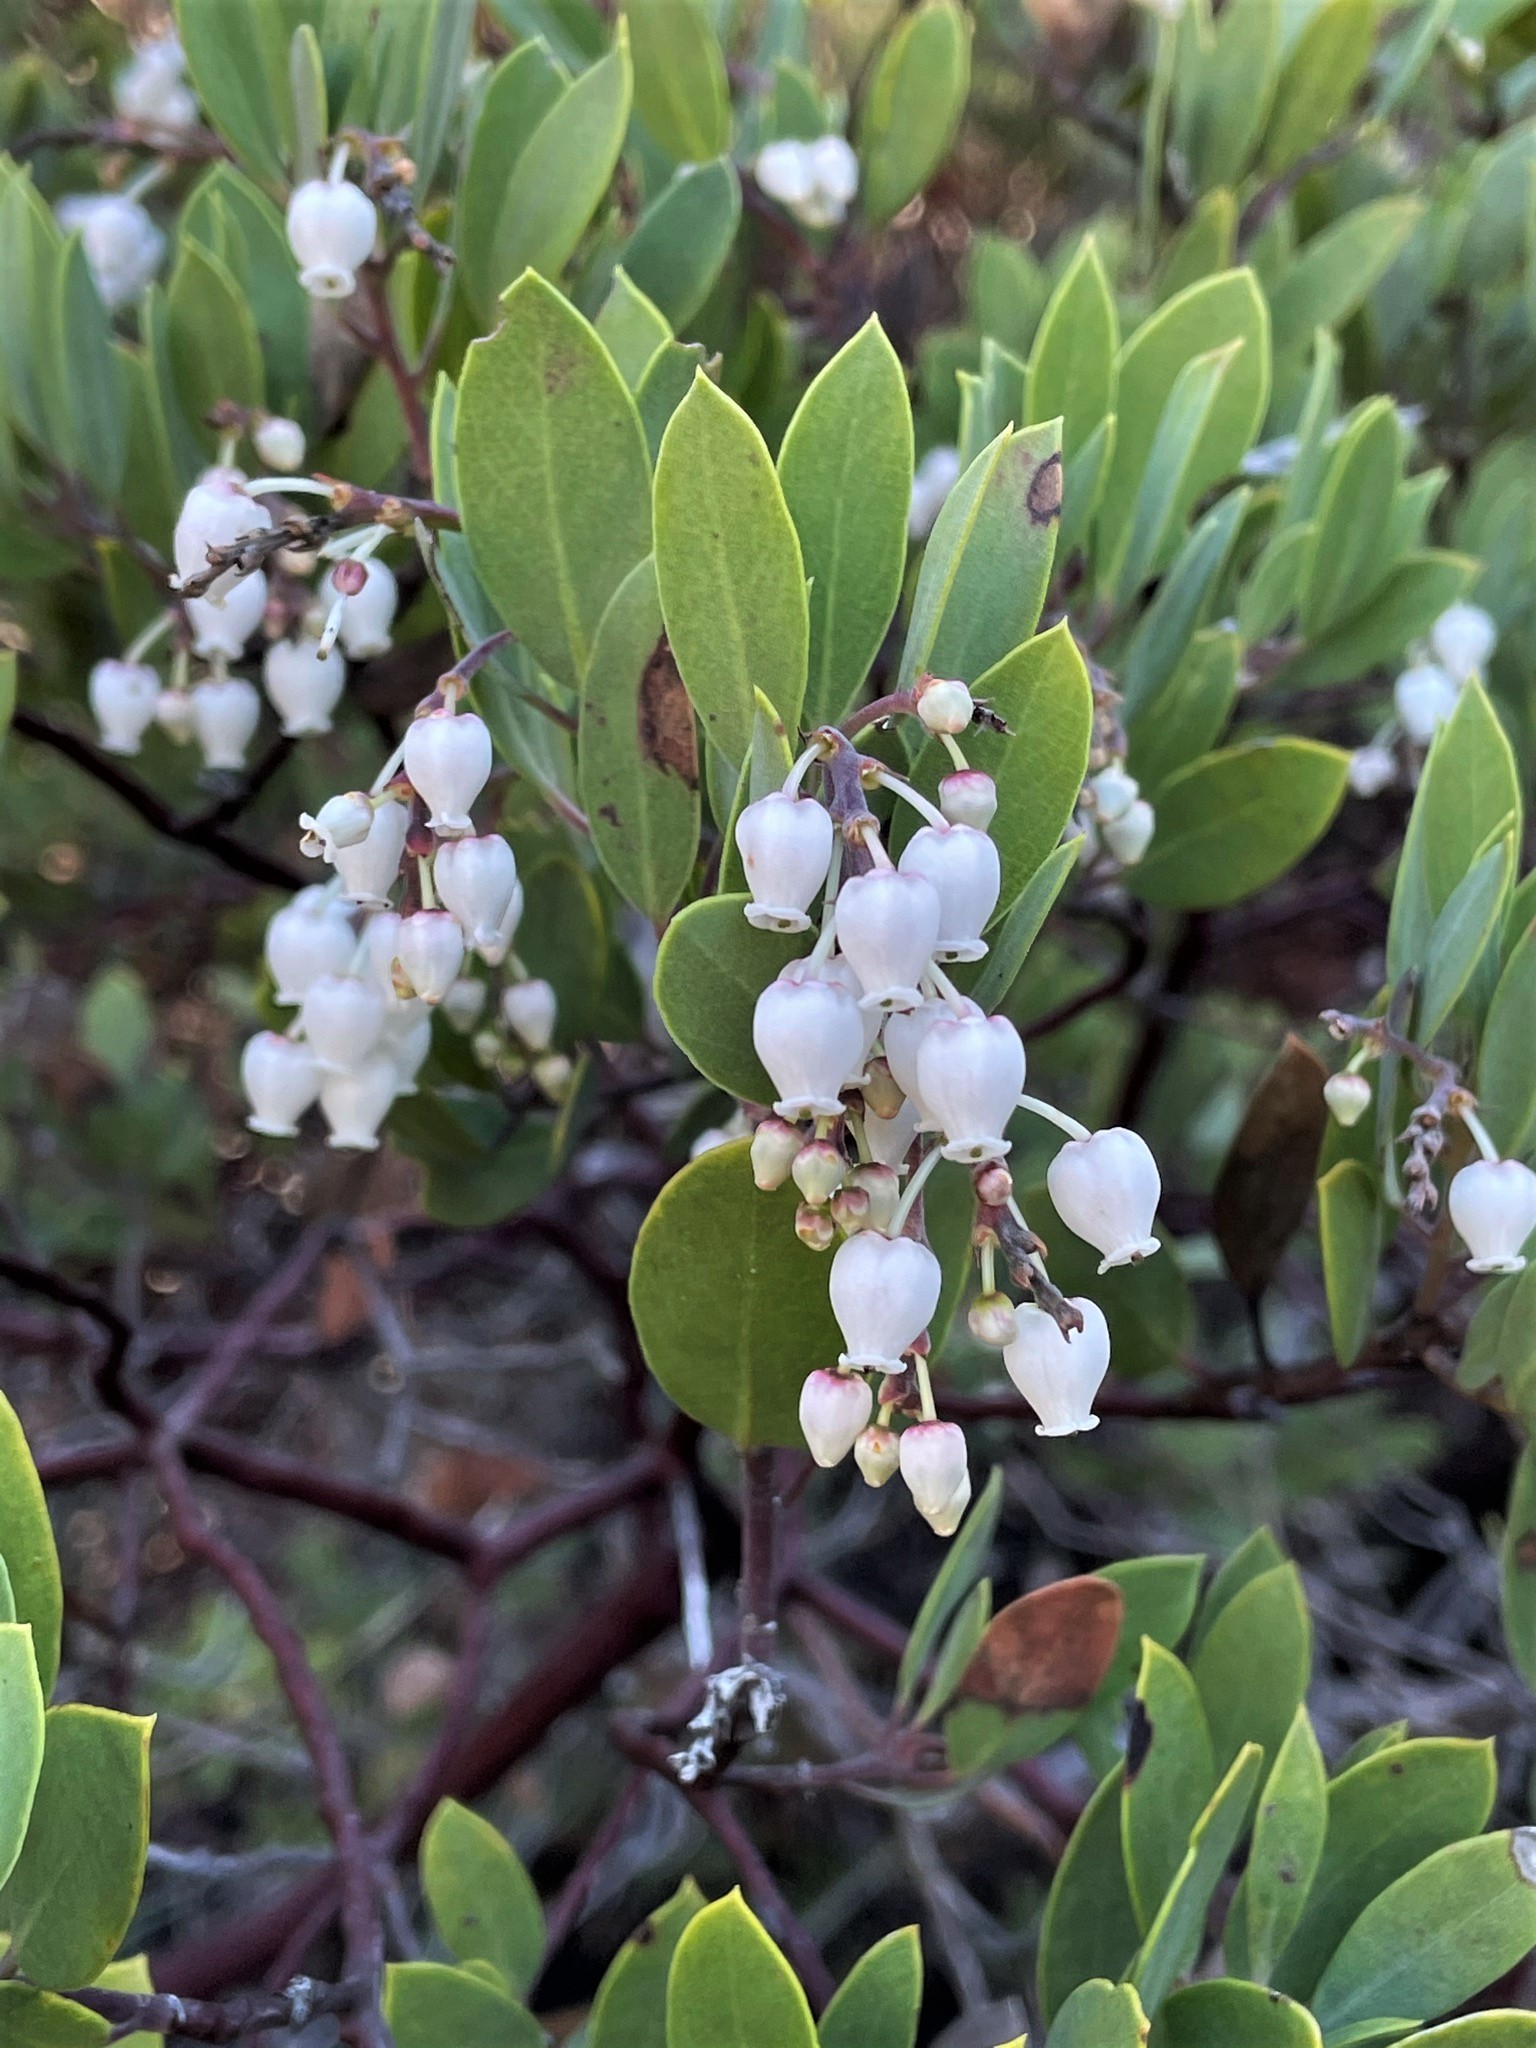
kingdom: Plantae
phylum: Tracheophyta
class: Magnoliopsida
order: Ericales
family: Ericaceae
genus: Arctostaphylos
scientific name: Arctostaphylos bakeri
